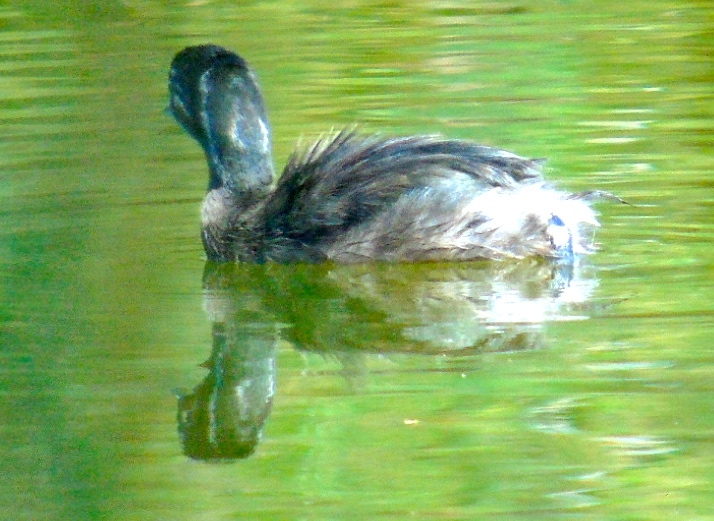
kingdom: Animalia
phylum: Chordata
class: Aves
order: Podicipediformes
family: Podicipedidae
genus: Tachybaptus
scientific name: Tachybaptus dominicus
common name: Least grebe
